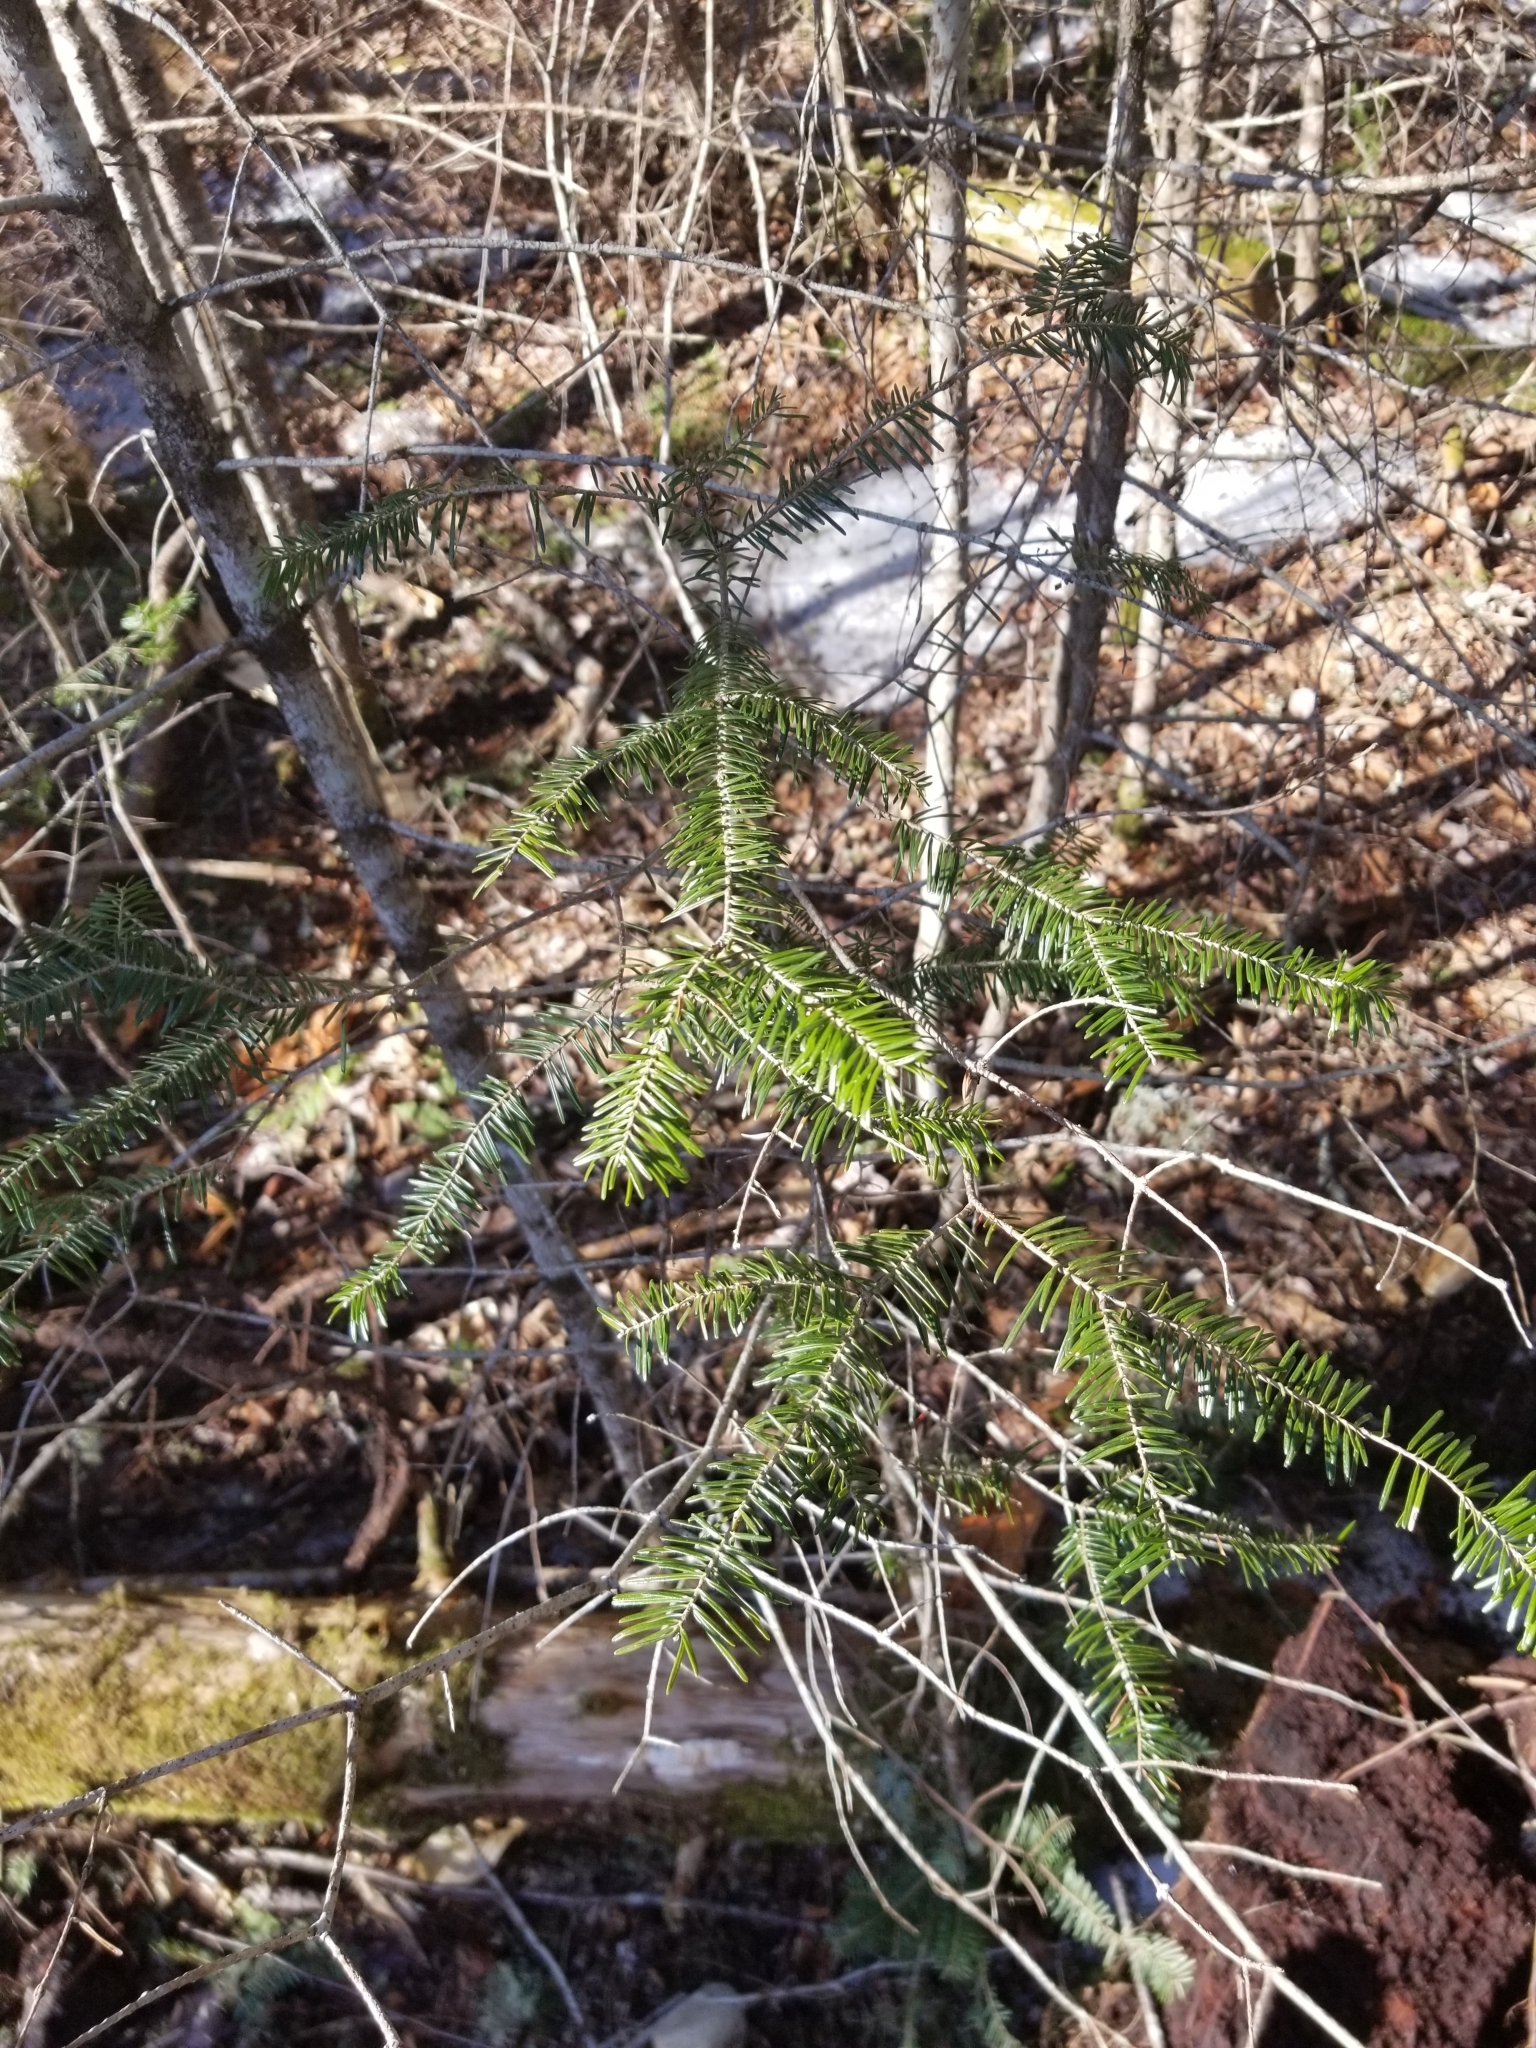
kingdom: Plantae
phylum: Tracheophyta
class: Pinopsida
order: Pinales
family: Pinaceae
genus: Abies
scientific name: Abies balsamea
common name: Balsam fir
